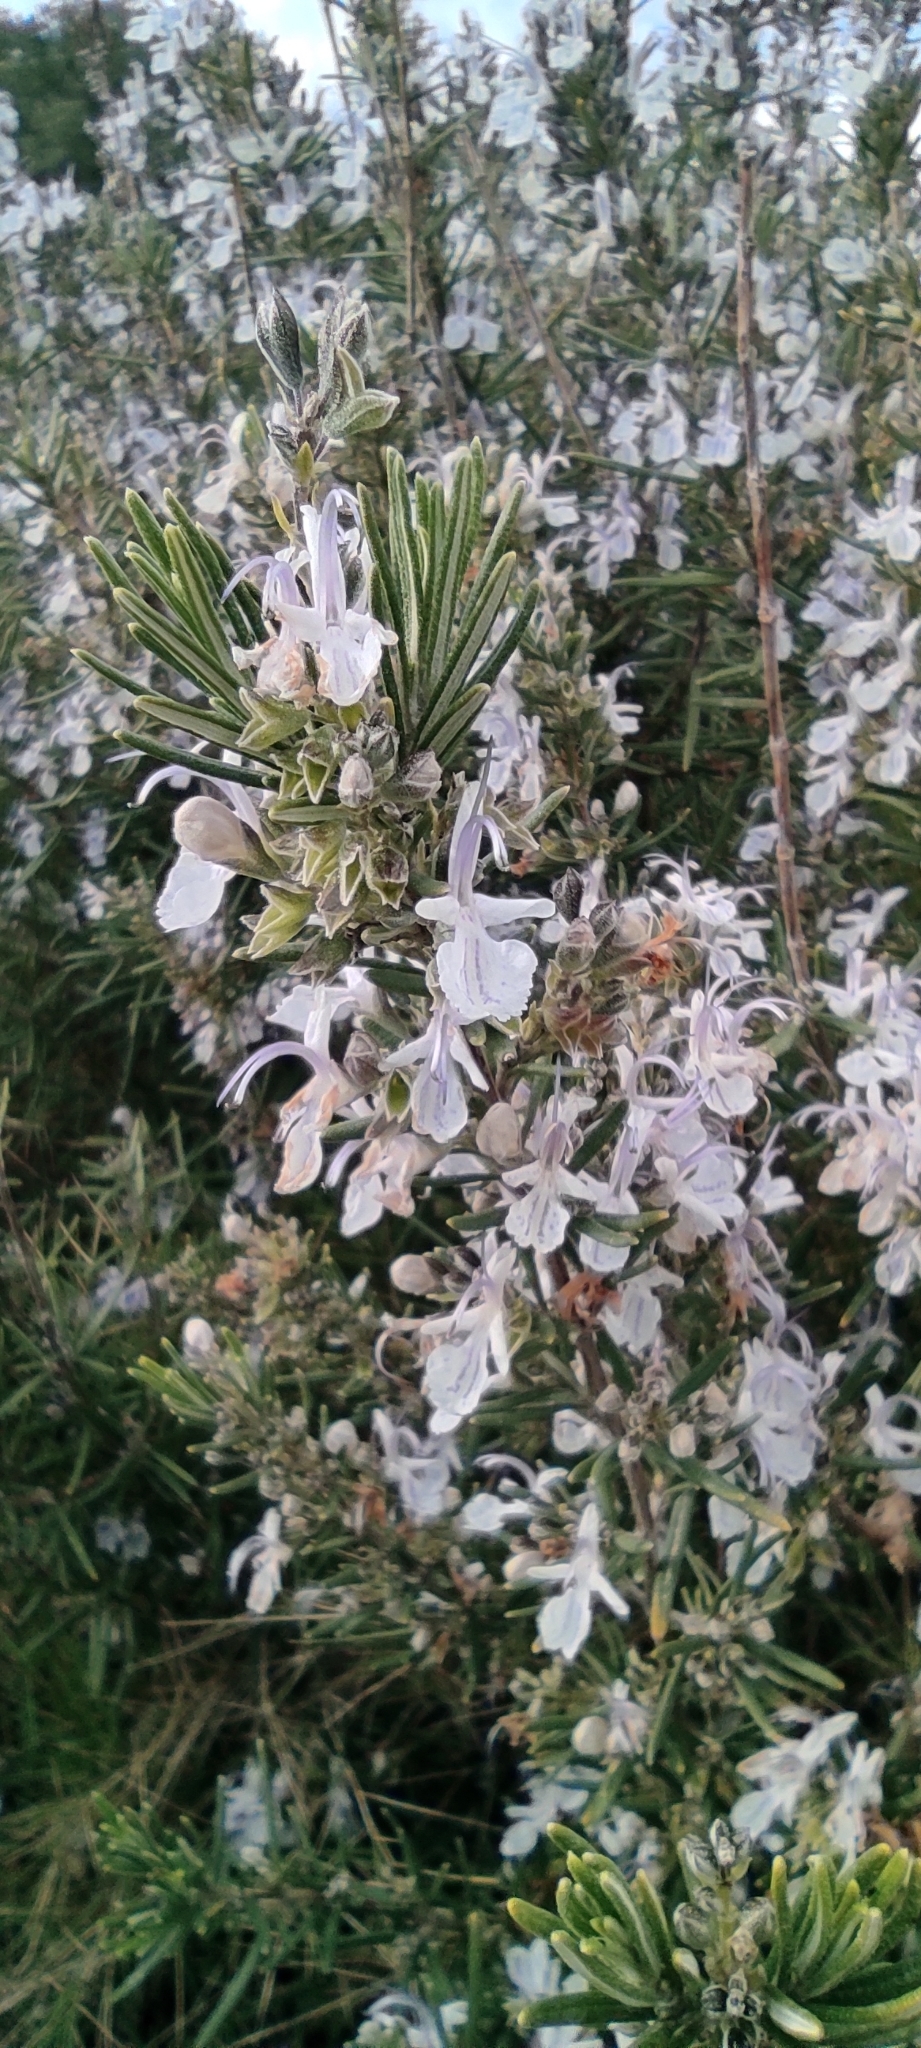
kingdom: Plantae
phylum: Tracheophyta
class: Magnoliopsida
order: Lamiales
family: Lamiaceae
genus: Salvia
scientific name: Salvia rosmarinus
